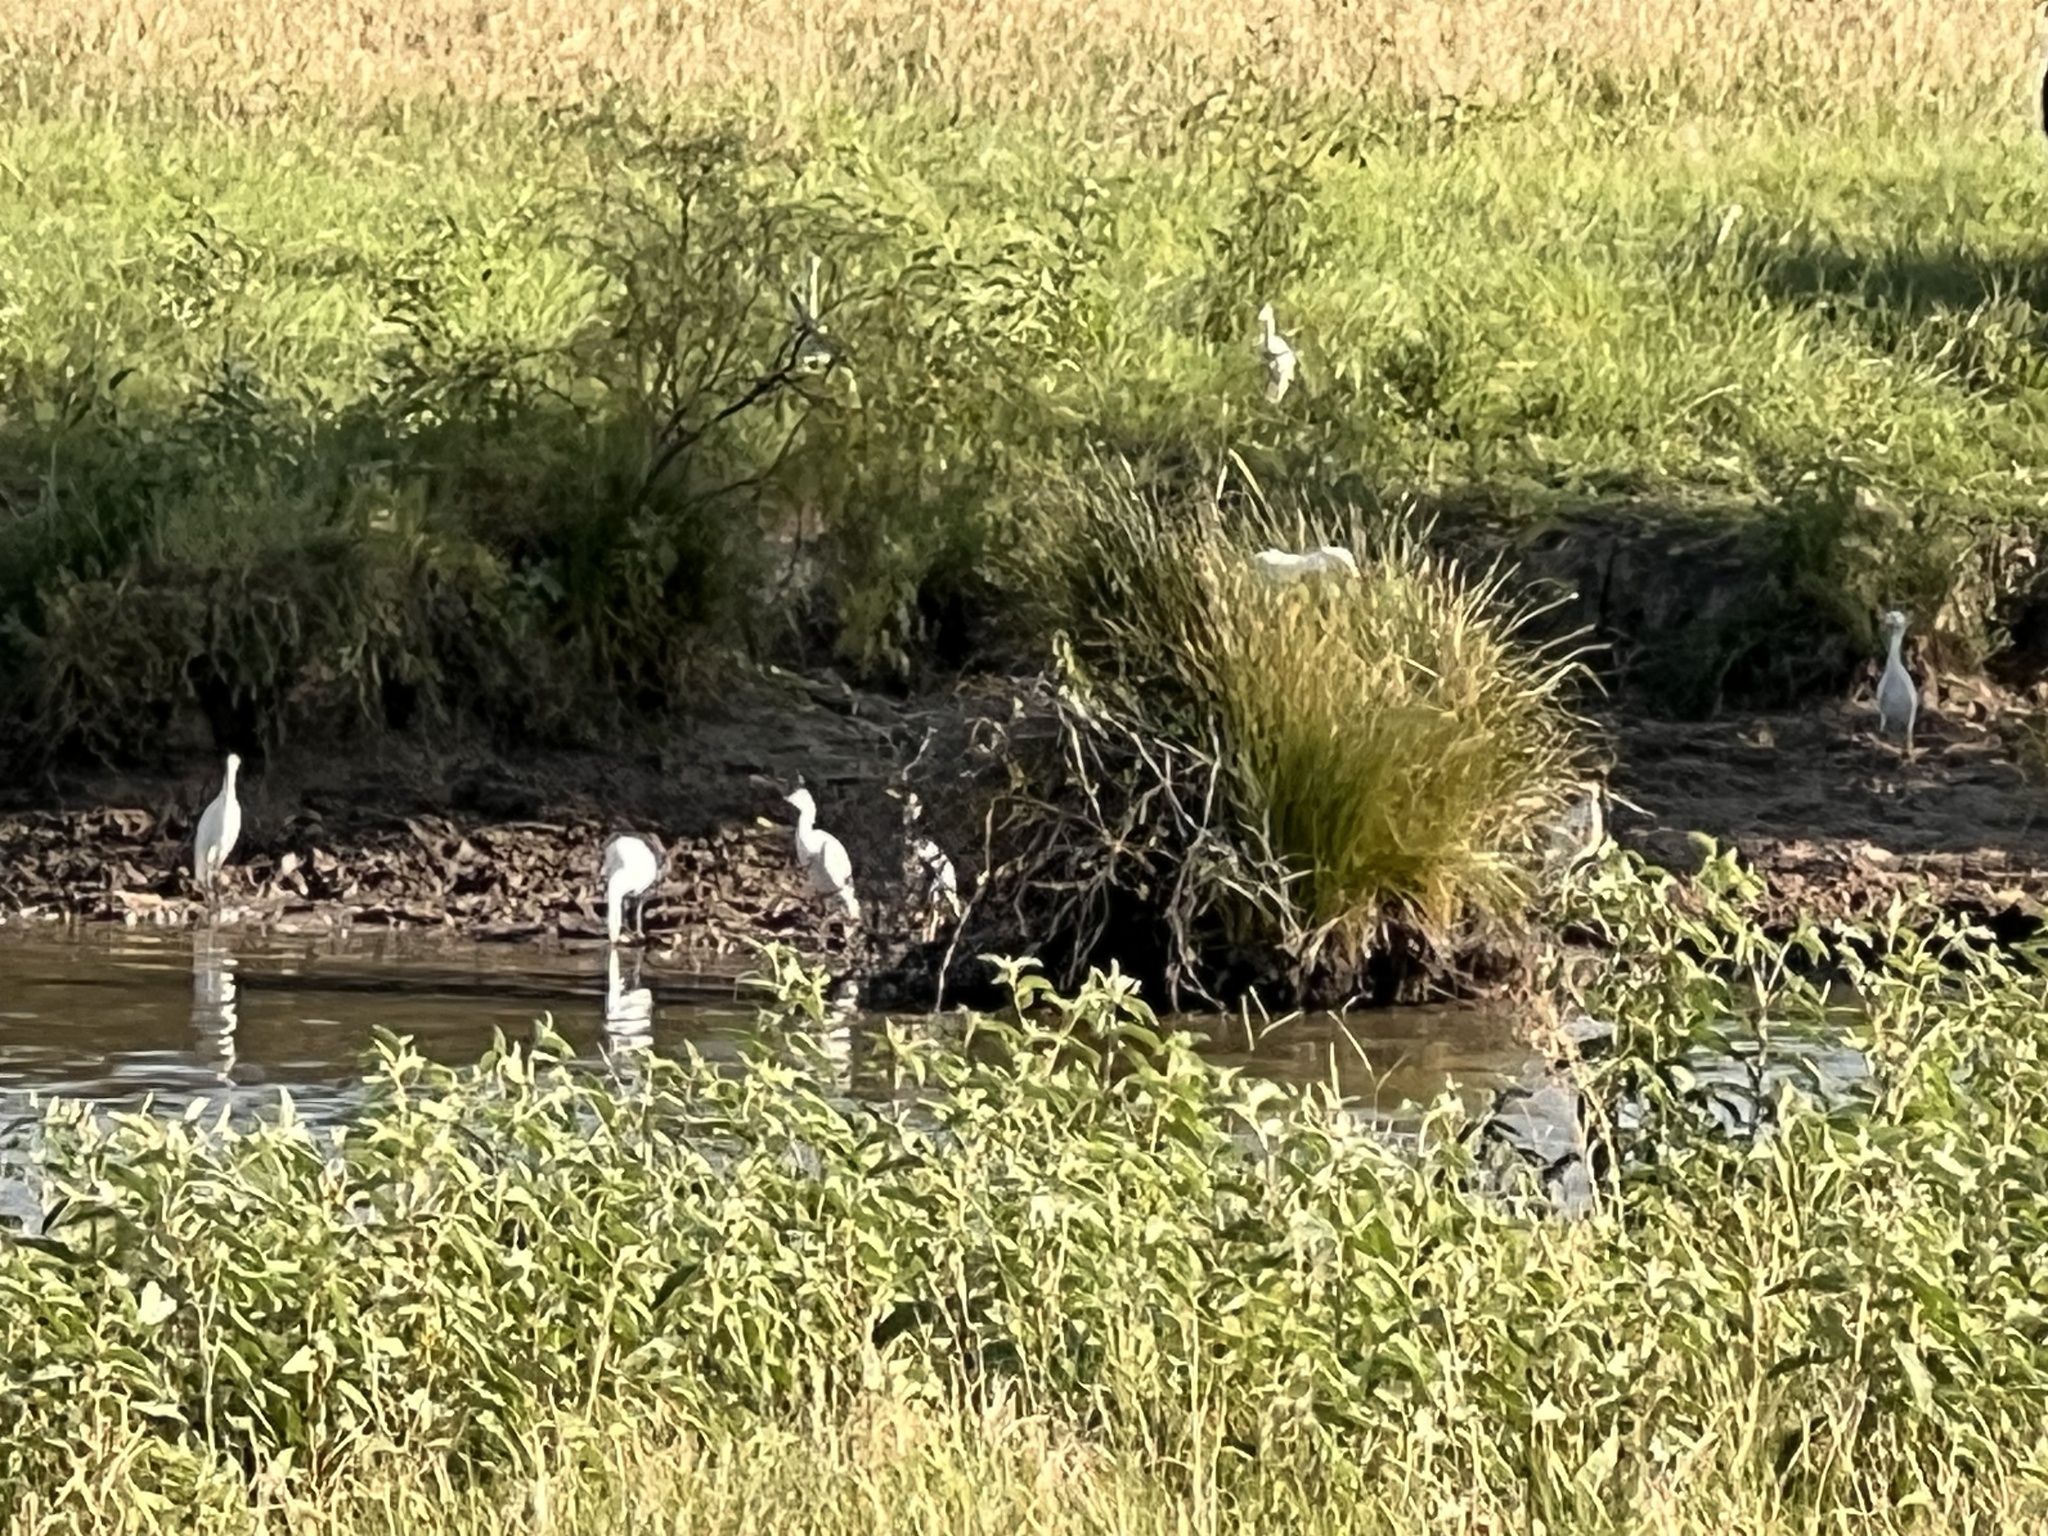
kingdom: Animalia
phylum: Chordata
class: Aves
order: Pelecaniformes
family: Ardeidae
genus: Bubulcus
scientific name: Bubulcus ibis
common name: Cattle egret
